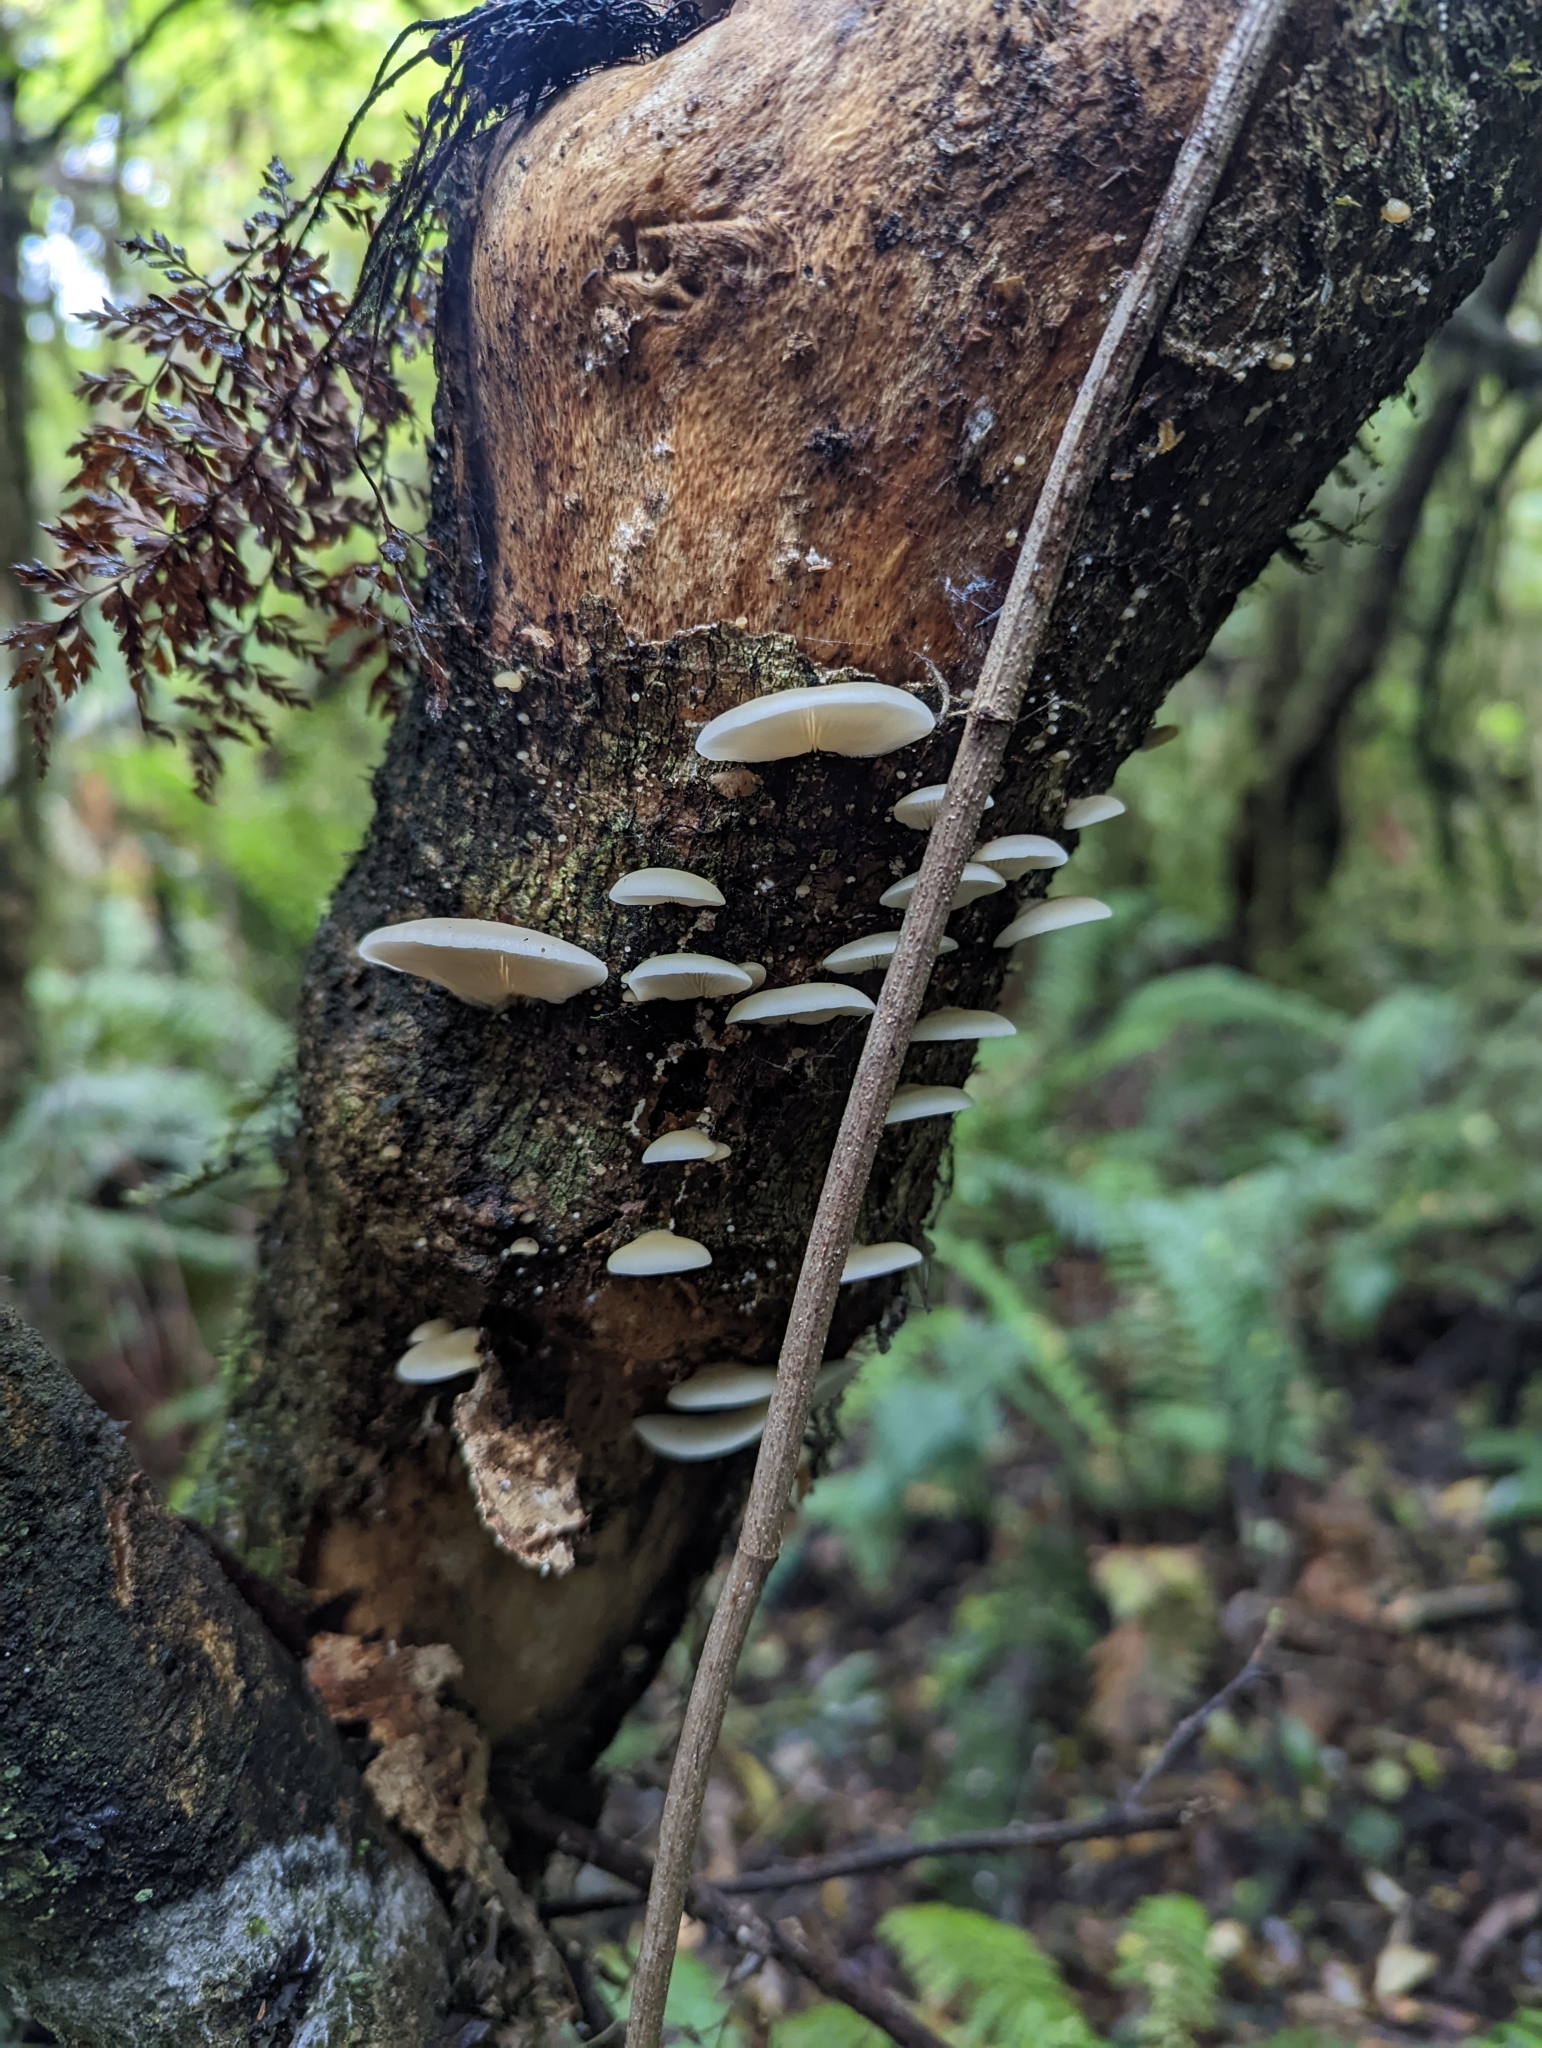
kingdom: Fungi
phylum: Basidiomycota
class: Agaricomycetes
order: Agaricales
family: Tricholomataceae
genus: Conchomyces
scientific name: Conchomyces bursiformis
